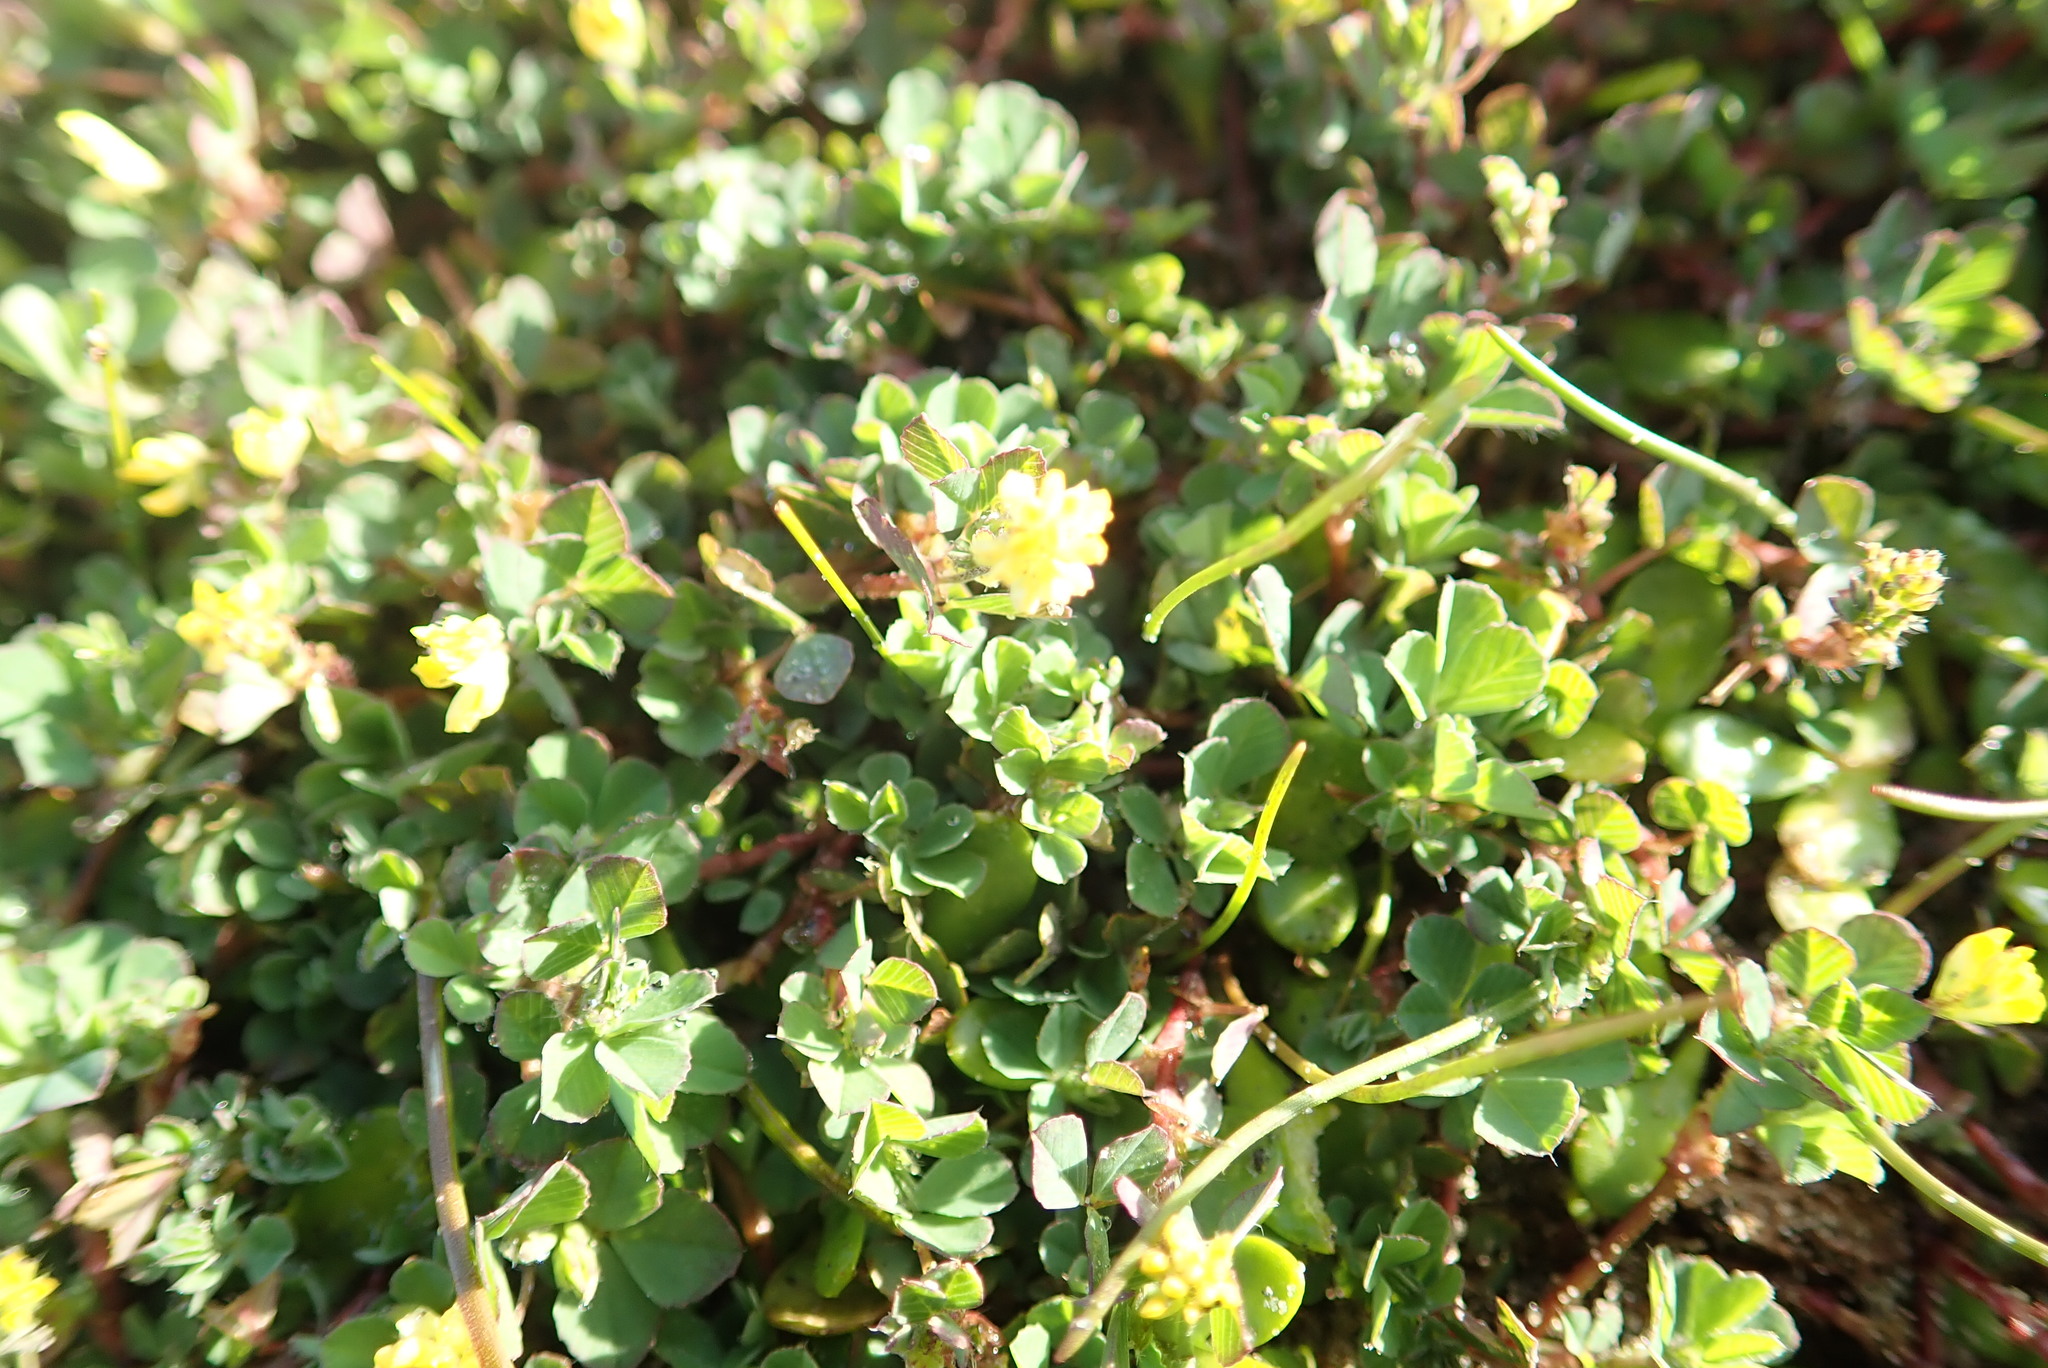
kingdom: Plantae
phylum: Tracheophyta
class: Magnoliopsida
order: Fabales
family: Fabaceae
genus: Trifolium
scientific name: Trifolium dubium
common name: Suckling clover
